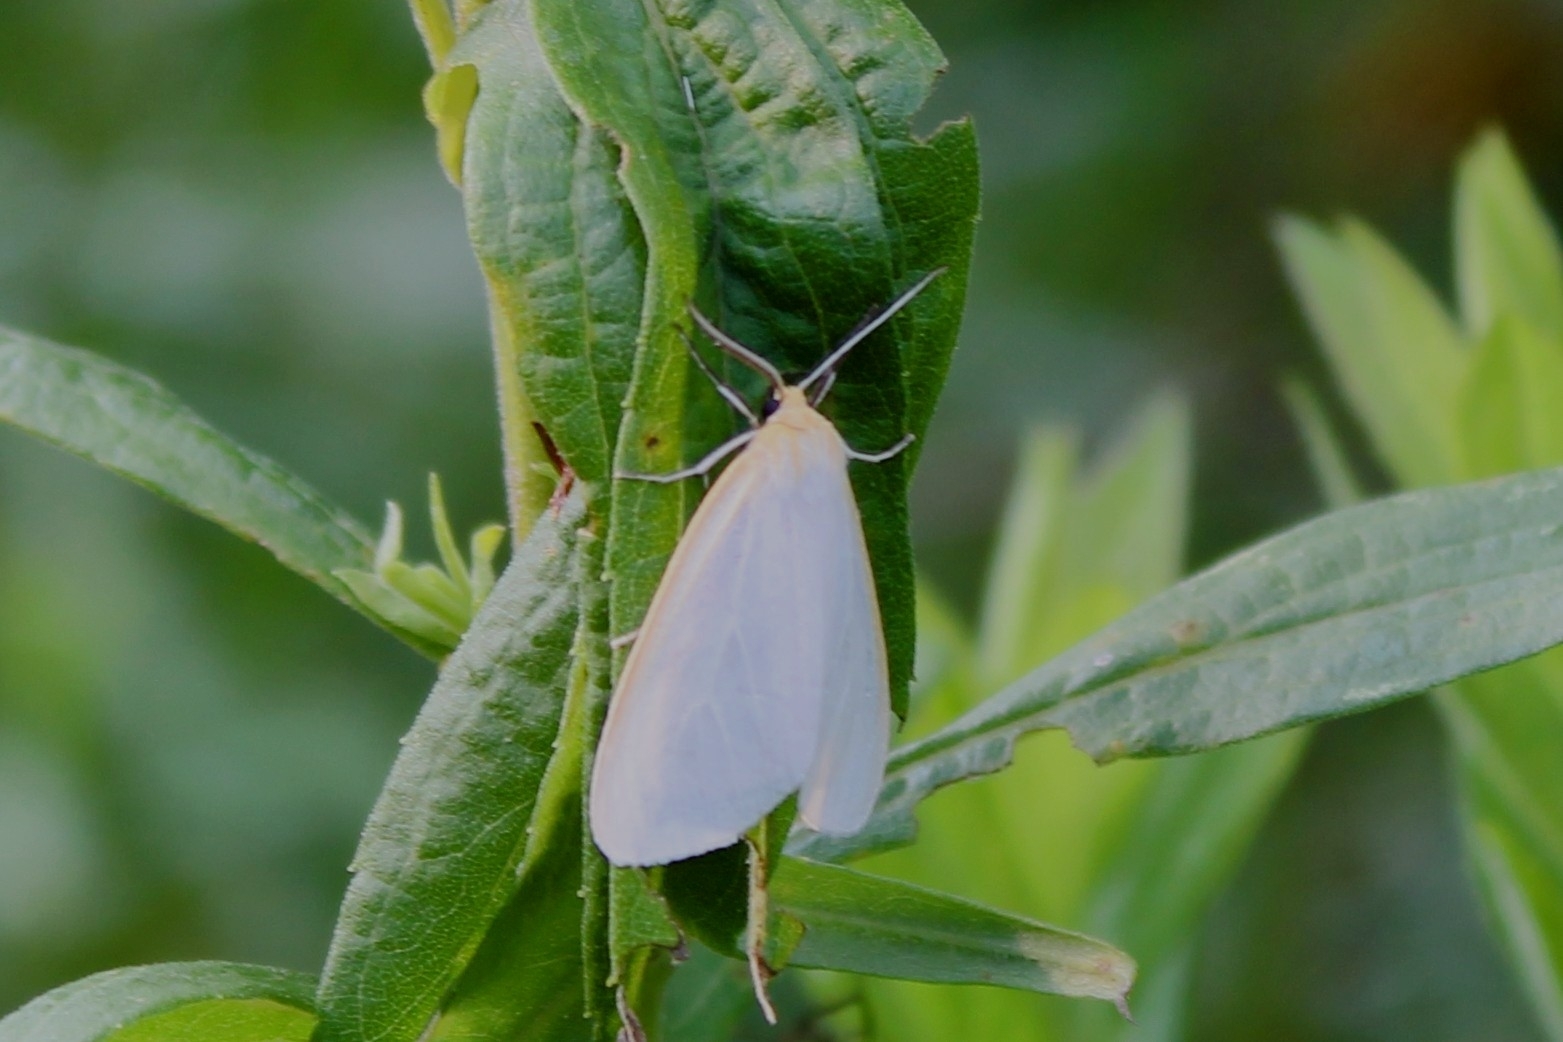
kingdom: Animalia
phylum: Arthropoda
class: Insecta
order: Lepidoptera
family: Erebidae
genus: Cycnia
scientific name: Cycnia tenera
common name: Delicate cycnia moth
